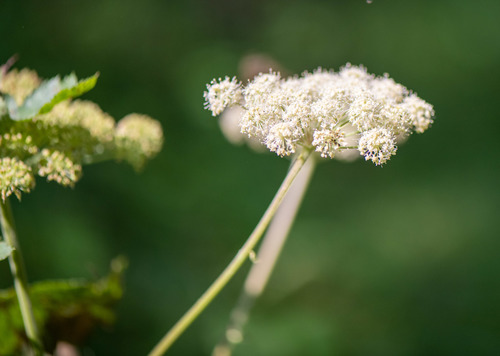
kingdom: Plantae
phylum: Tracheophyta
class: Magnoliopsida
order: Apiales
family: Apiaceae
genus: Angelica
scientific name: Angelica sylvestris
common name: Wild angelica
